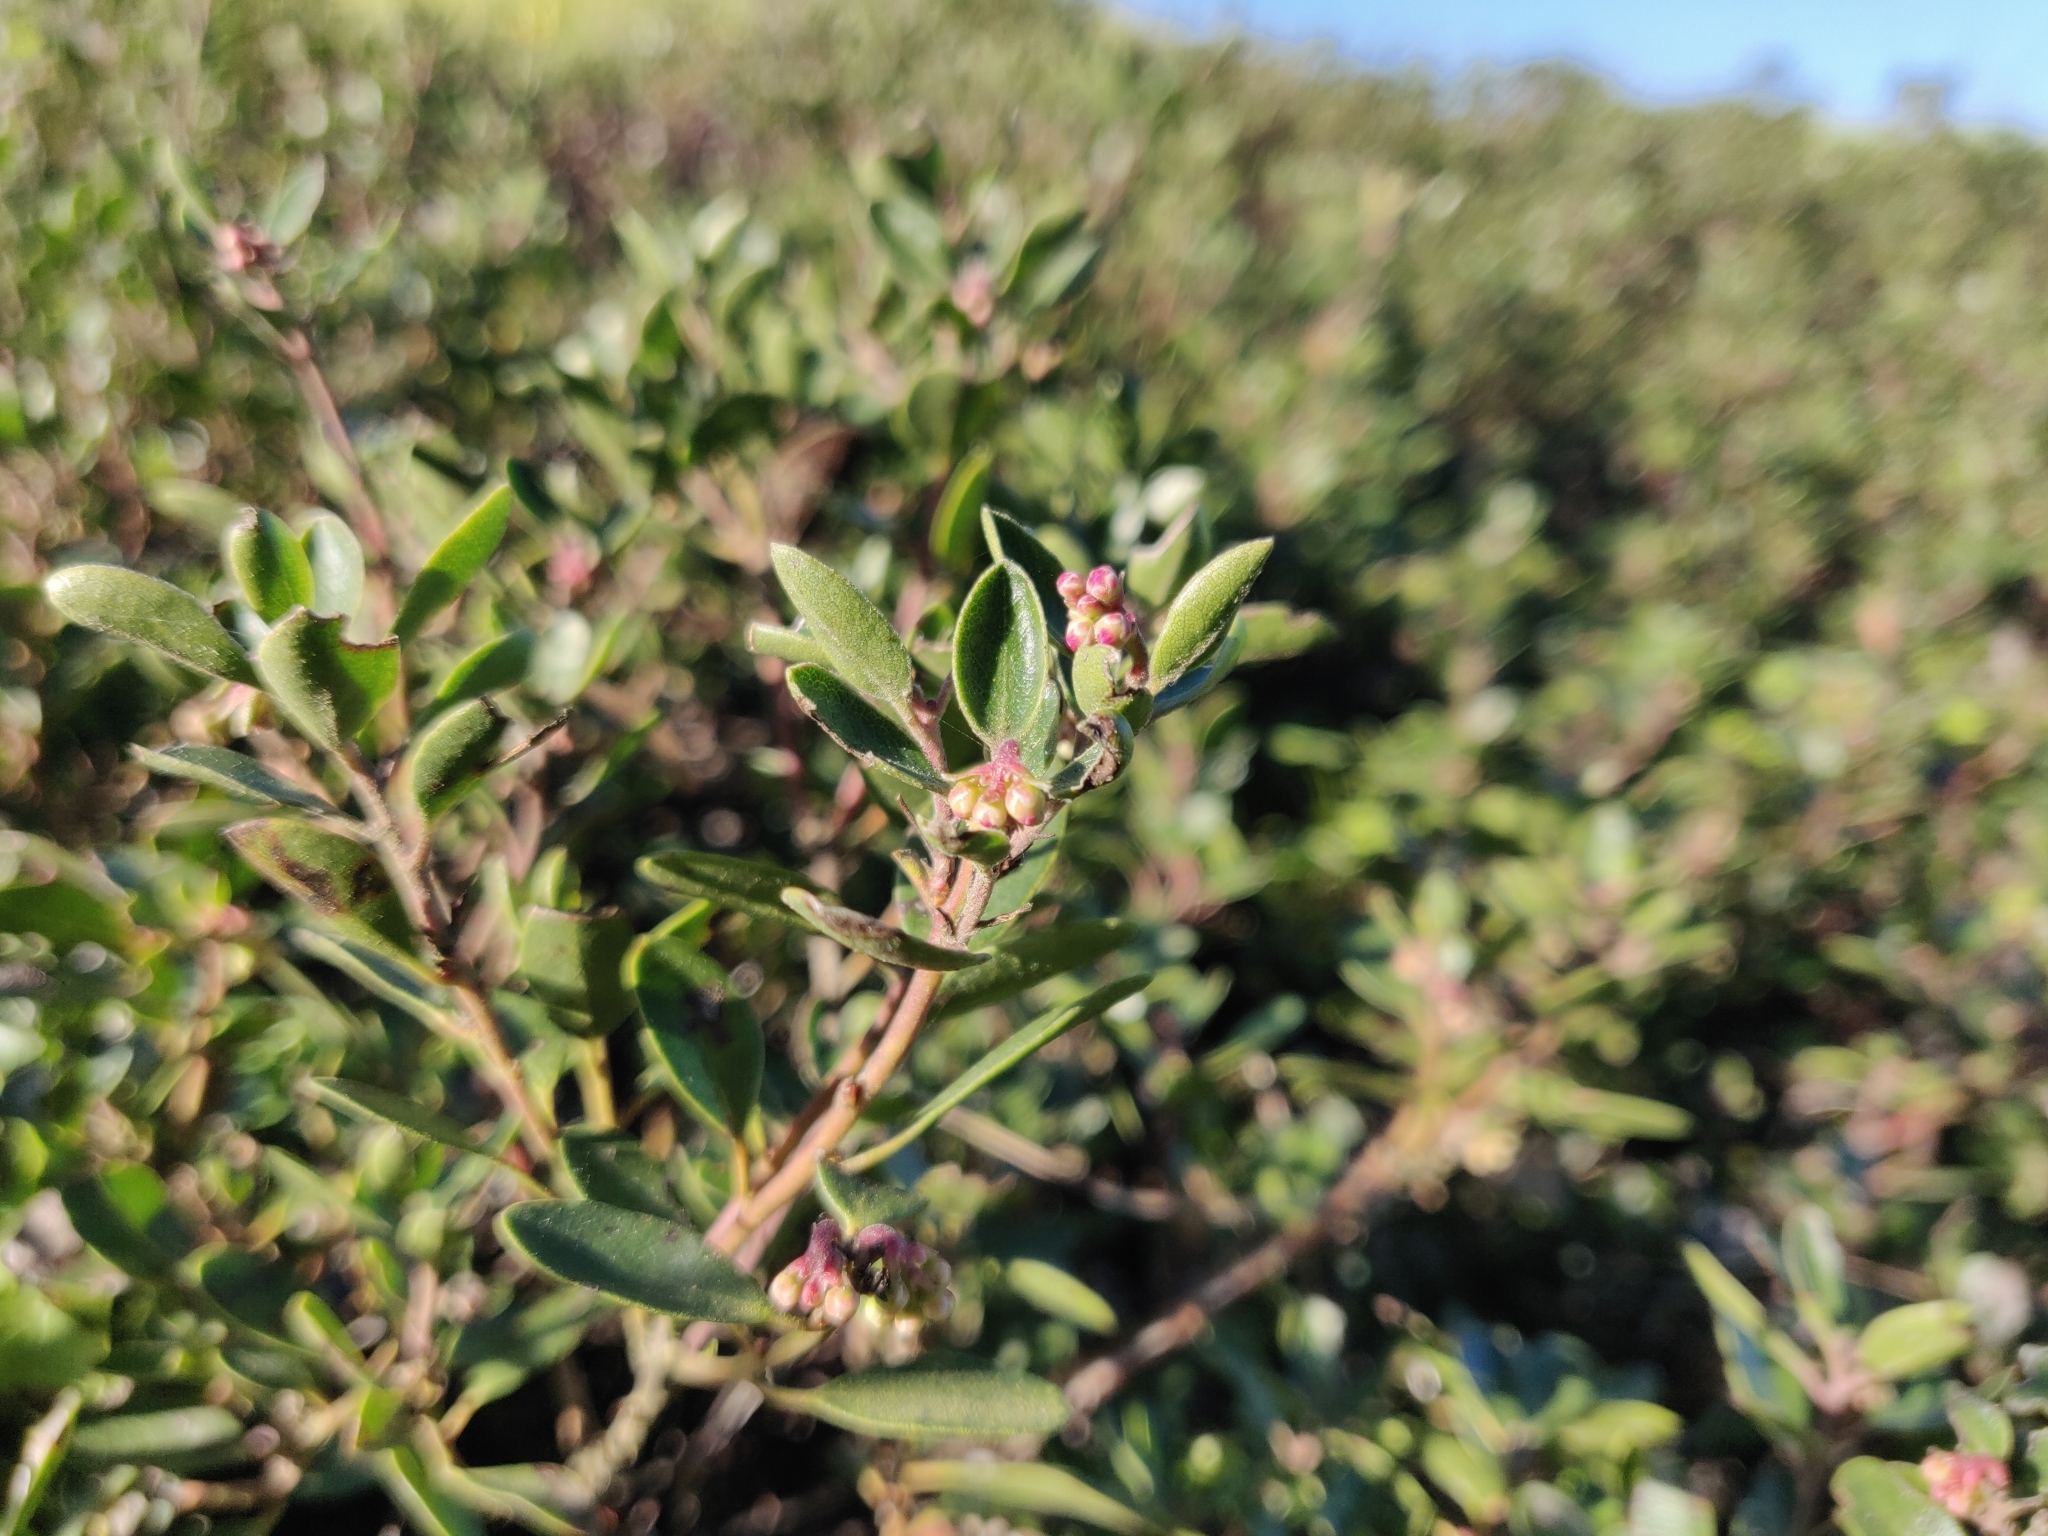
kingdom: Plantae
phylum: Tracheophyta
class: Magnoliopsida
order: Ericales
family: Ericaceae
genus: Arctostaphylos
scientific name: Arctostaphylos franciscana
